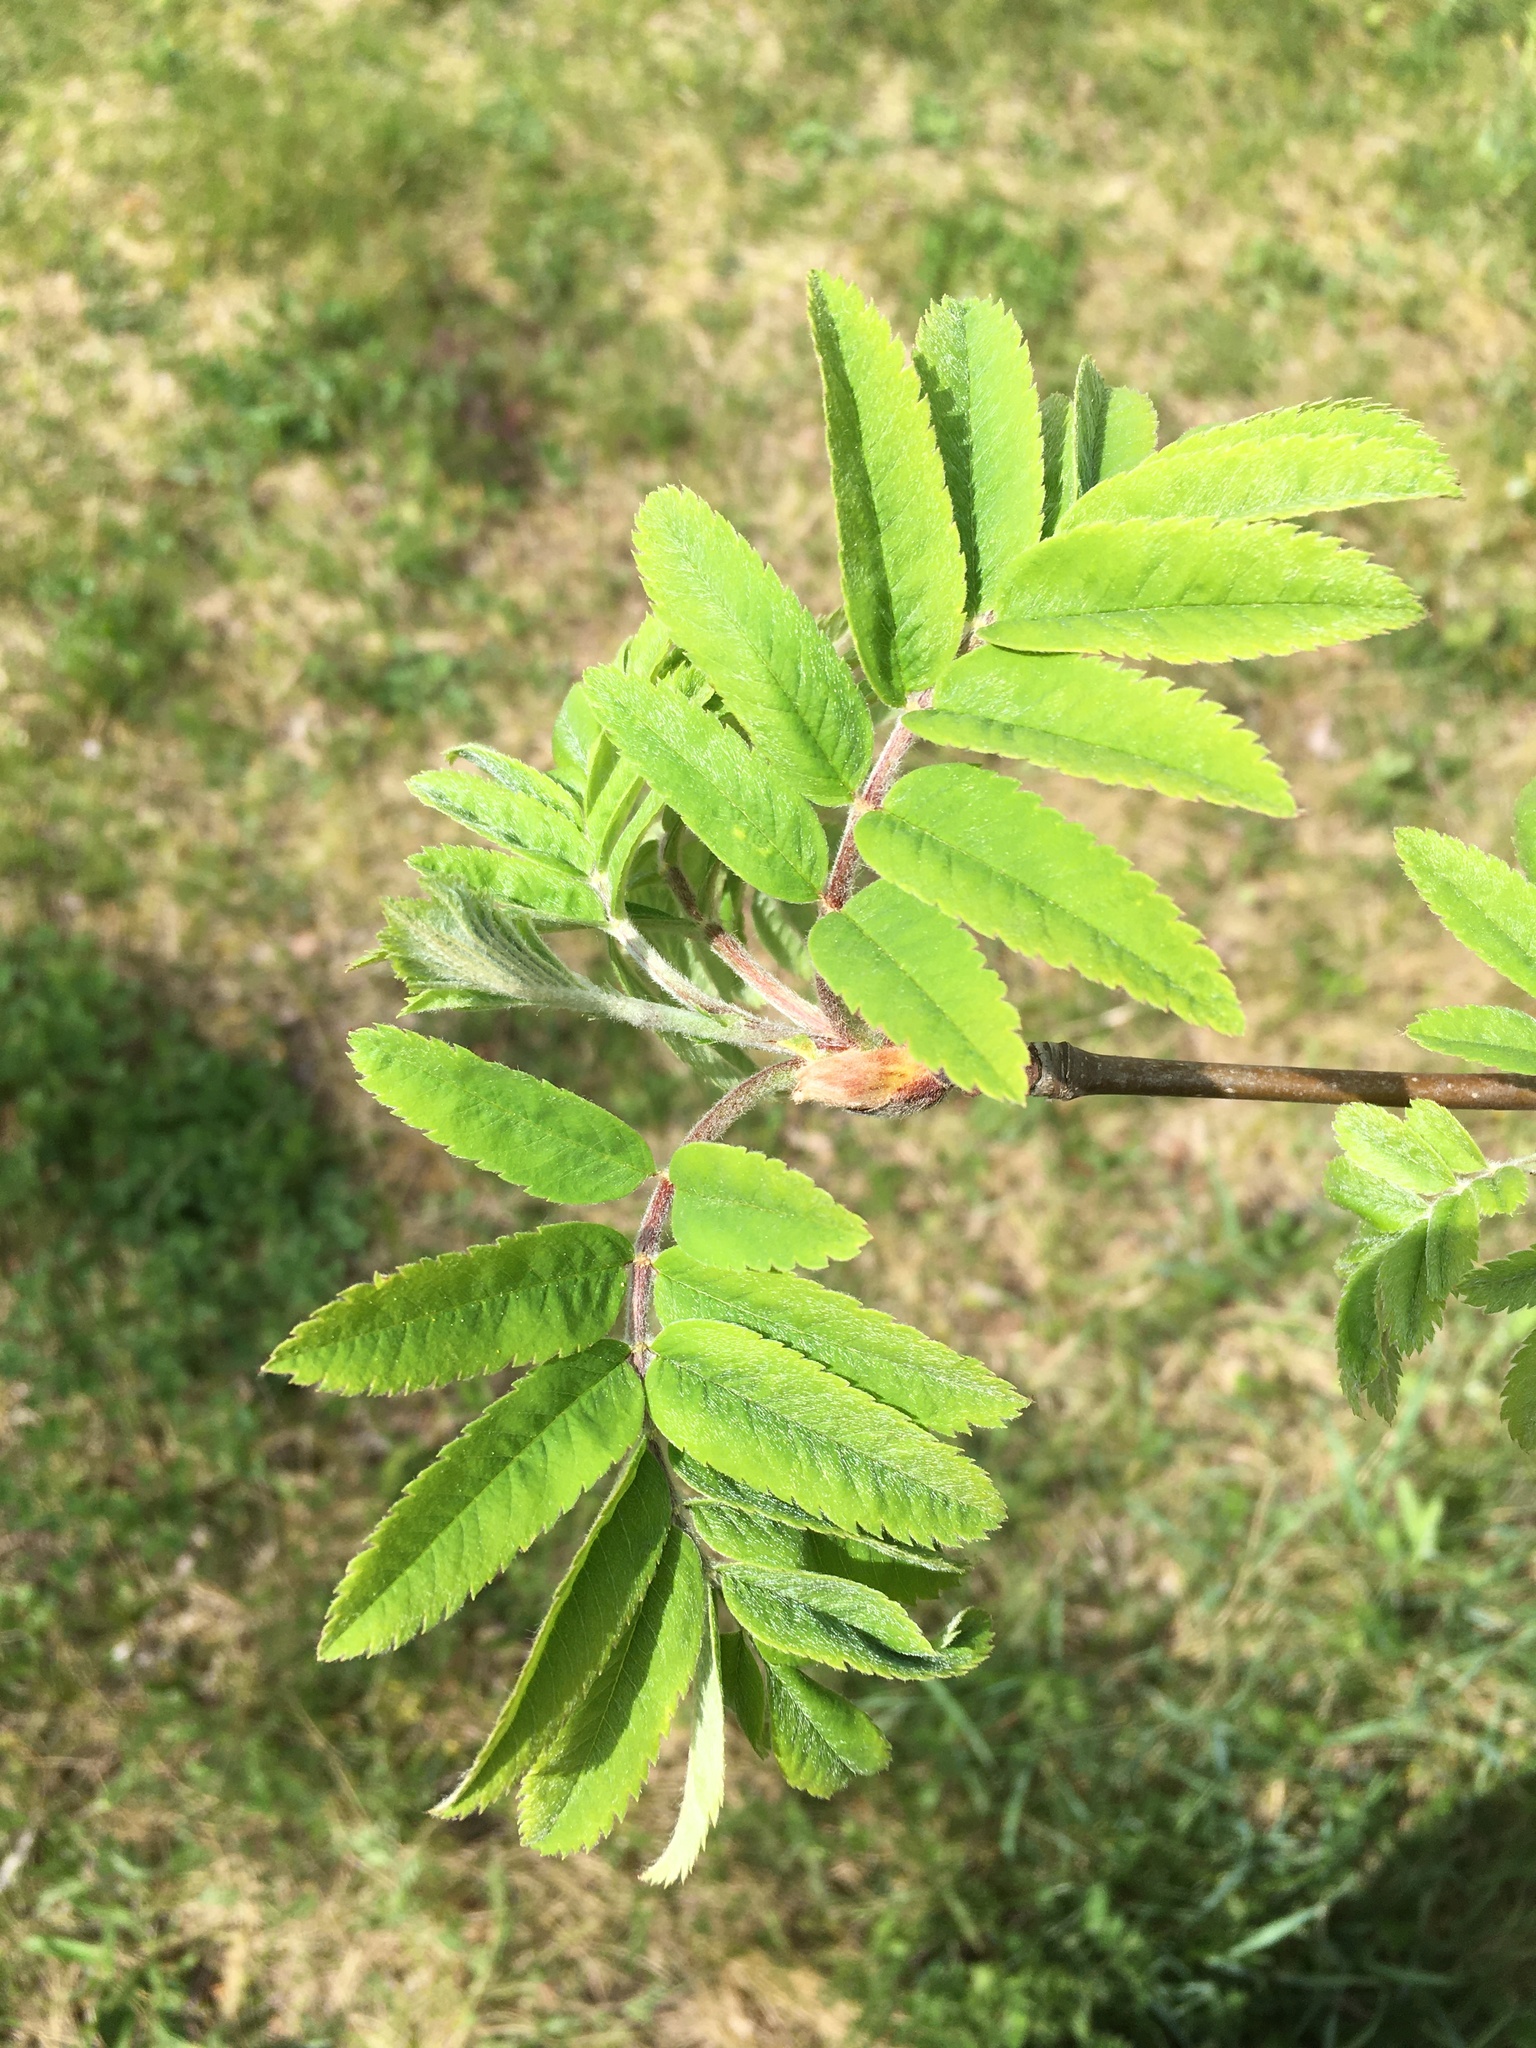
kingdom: Plantae
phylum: Tracheophyta
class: Magnoliopsida
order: Rosales
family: Rosaceae
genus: Sorbus
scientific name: Sorbus aucuparia
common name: Rowan
